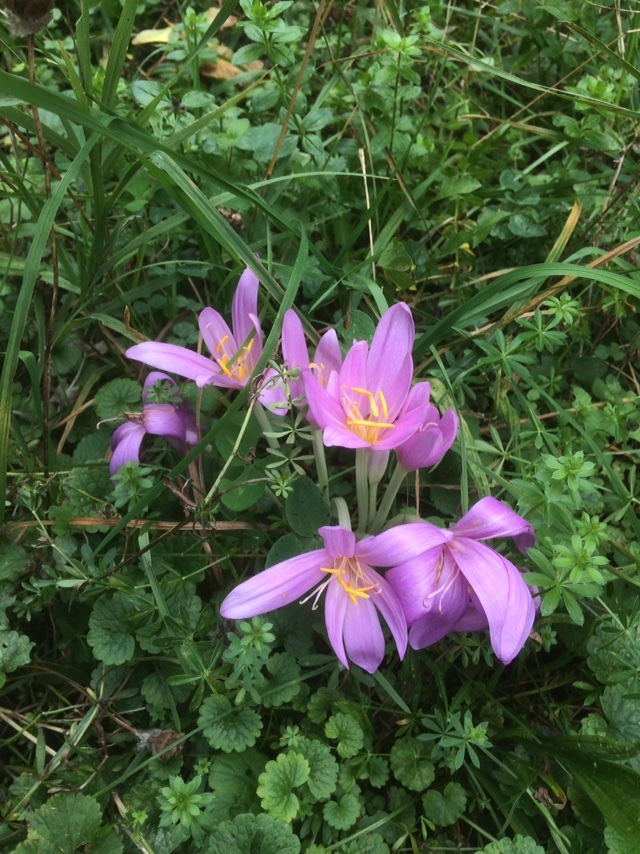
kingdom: Plantae
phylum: Tracheophyta
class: Liliopsida
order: Liliales
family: Colchicaceae
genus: Colchicum
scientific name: Colchicum autumnale
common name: Autumn crocus
